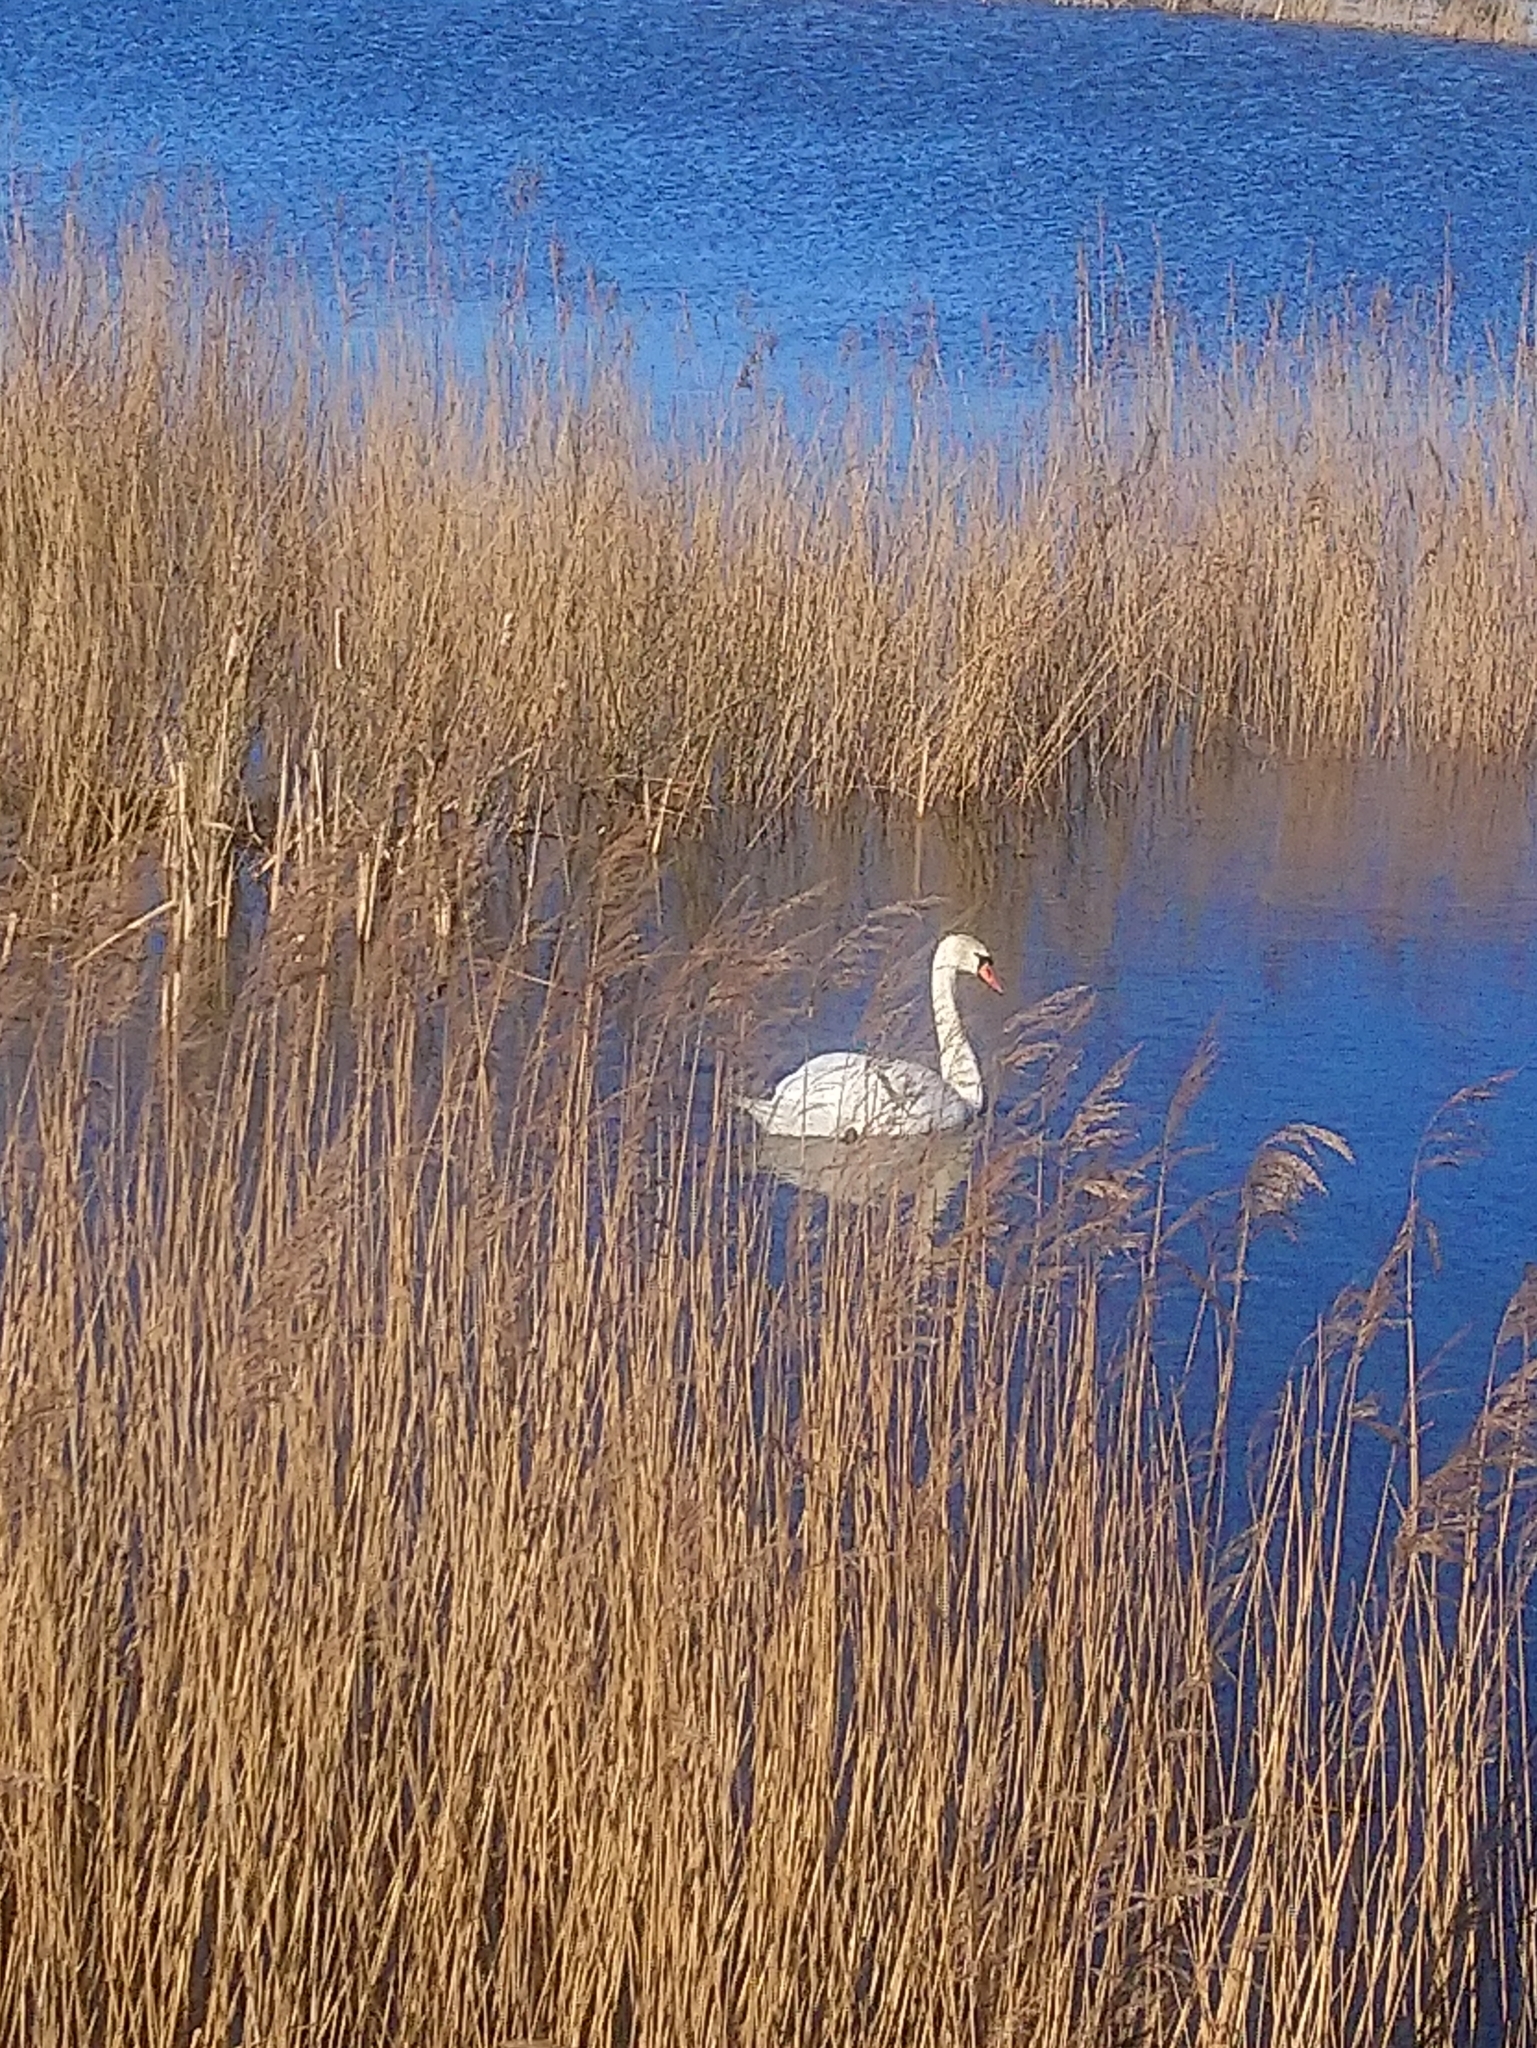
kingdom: Animalia
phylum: Chordata
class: Aves
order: Anseriformes
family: Anatidae
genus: Cygnus
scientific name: Cygnus olor
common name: Mute swan
